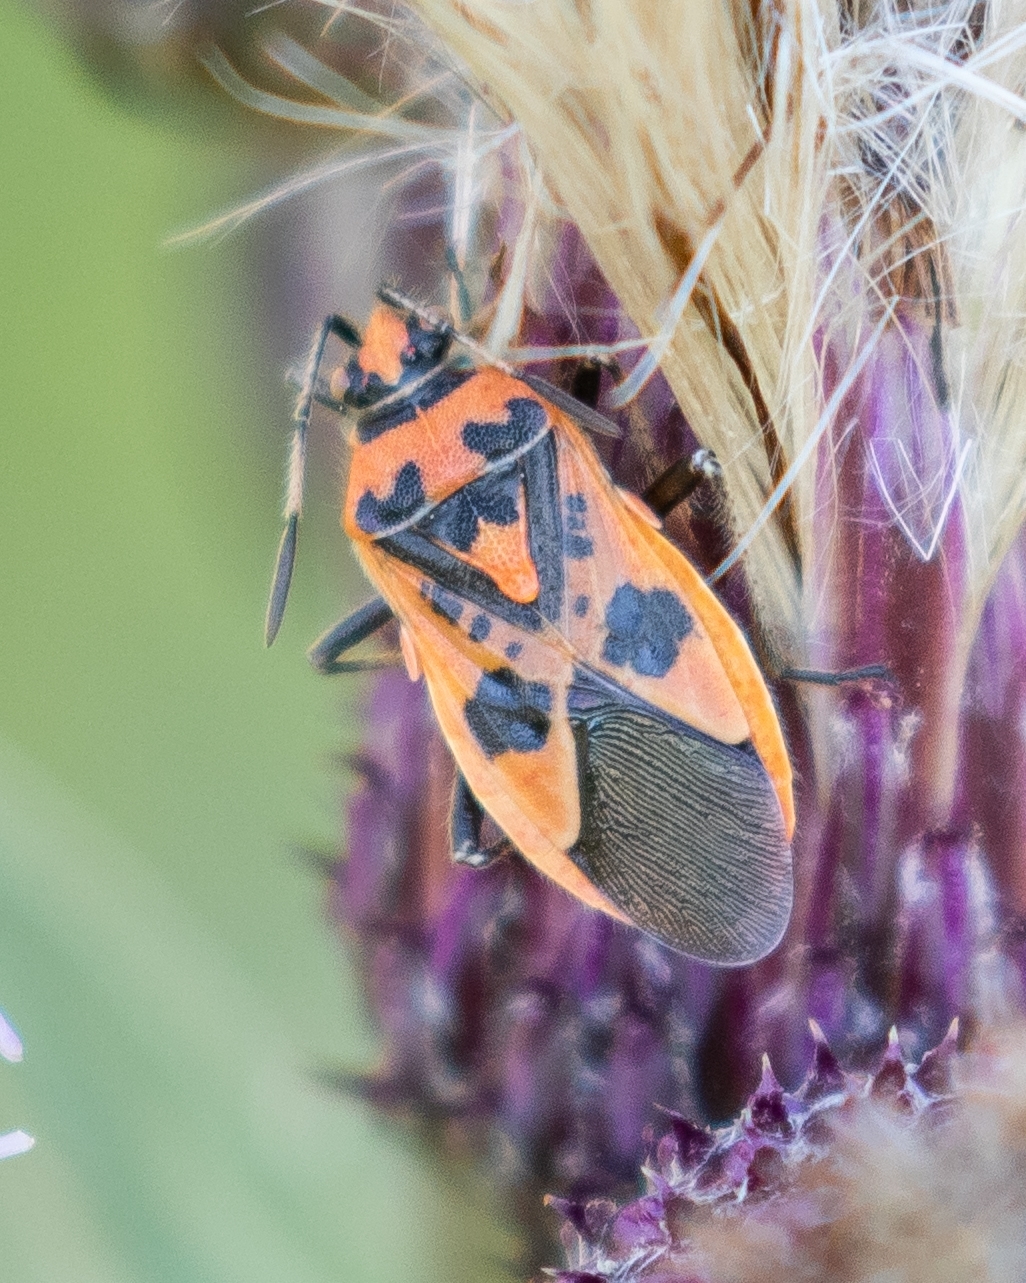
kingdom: Animalia
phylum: Arthropoda
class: Insecta
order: Hemiptera
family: Rhopalidae
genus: Corizus
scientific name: Corizus hyoscyami
